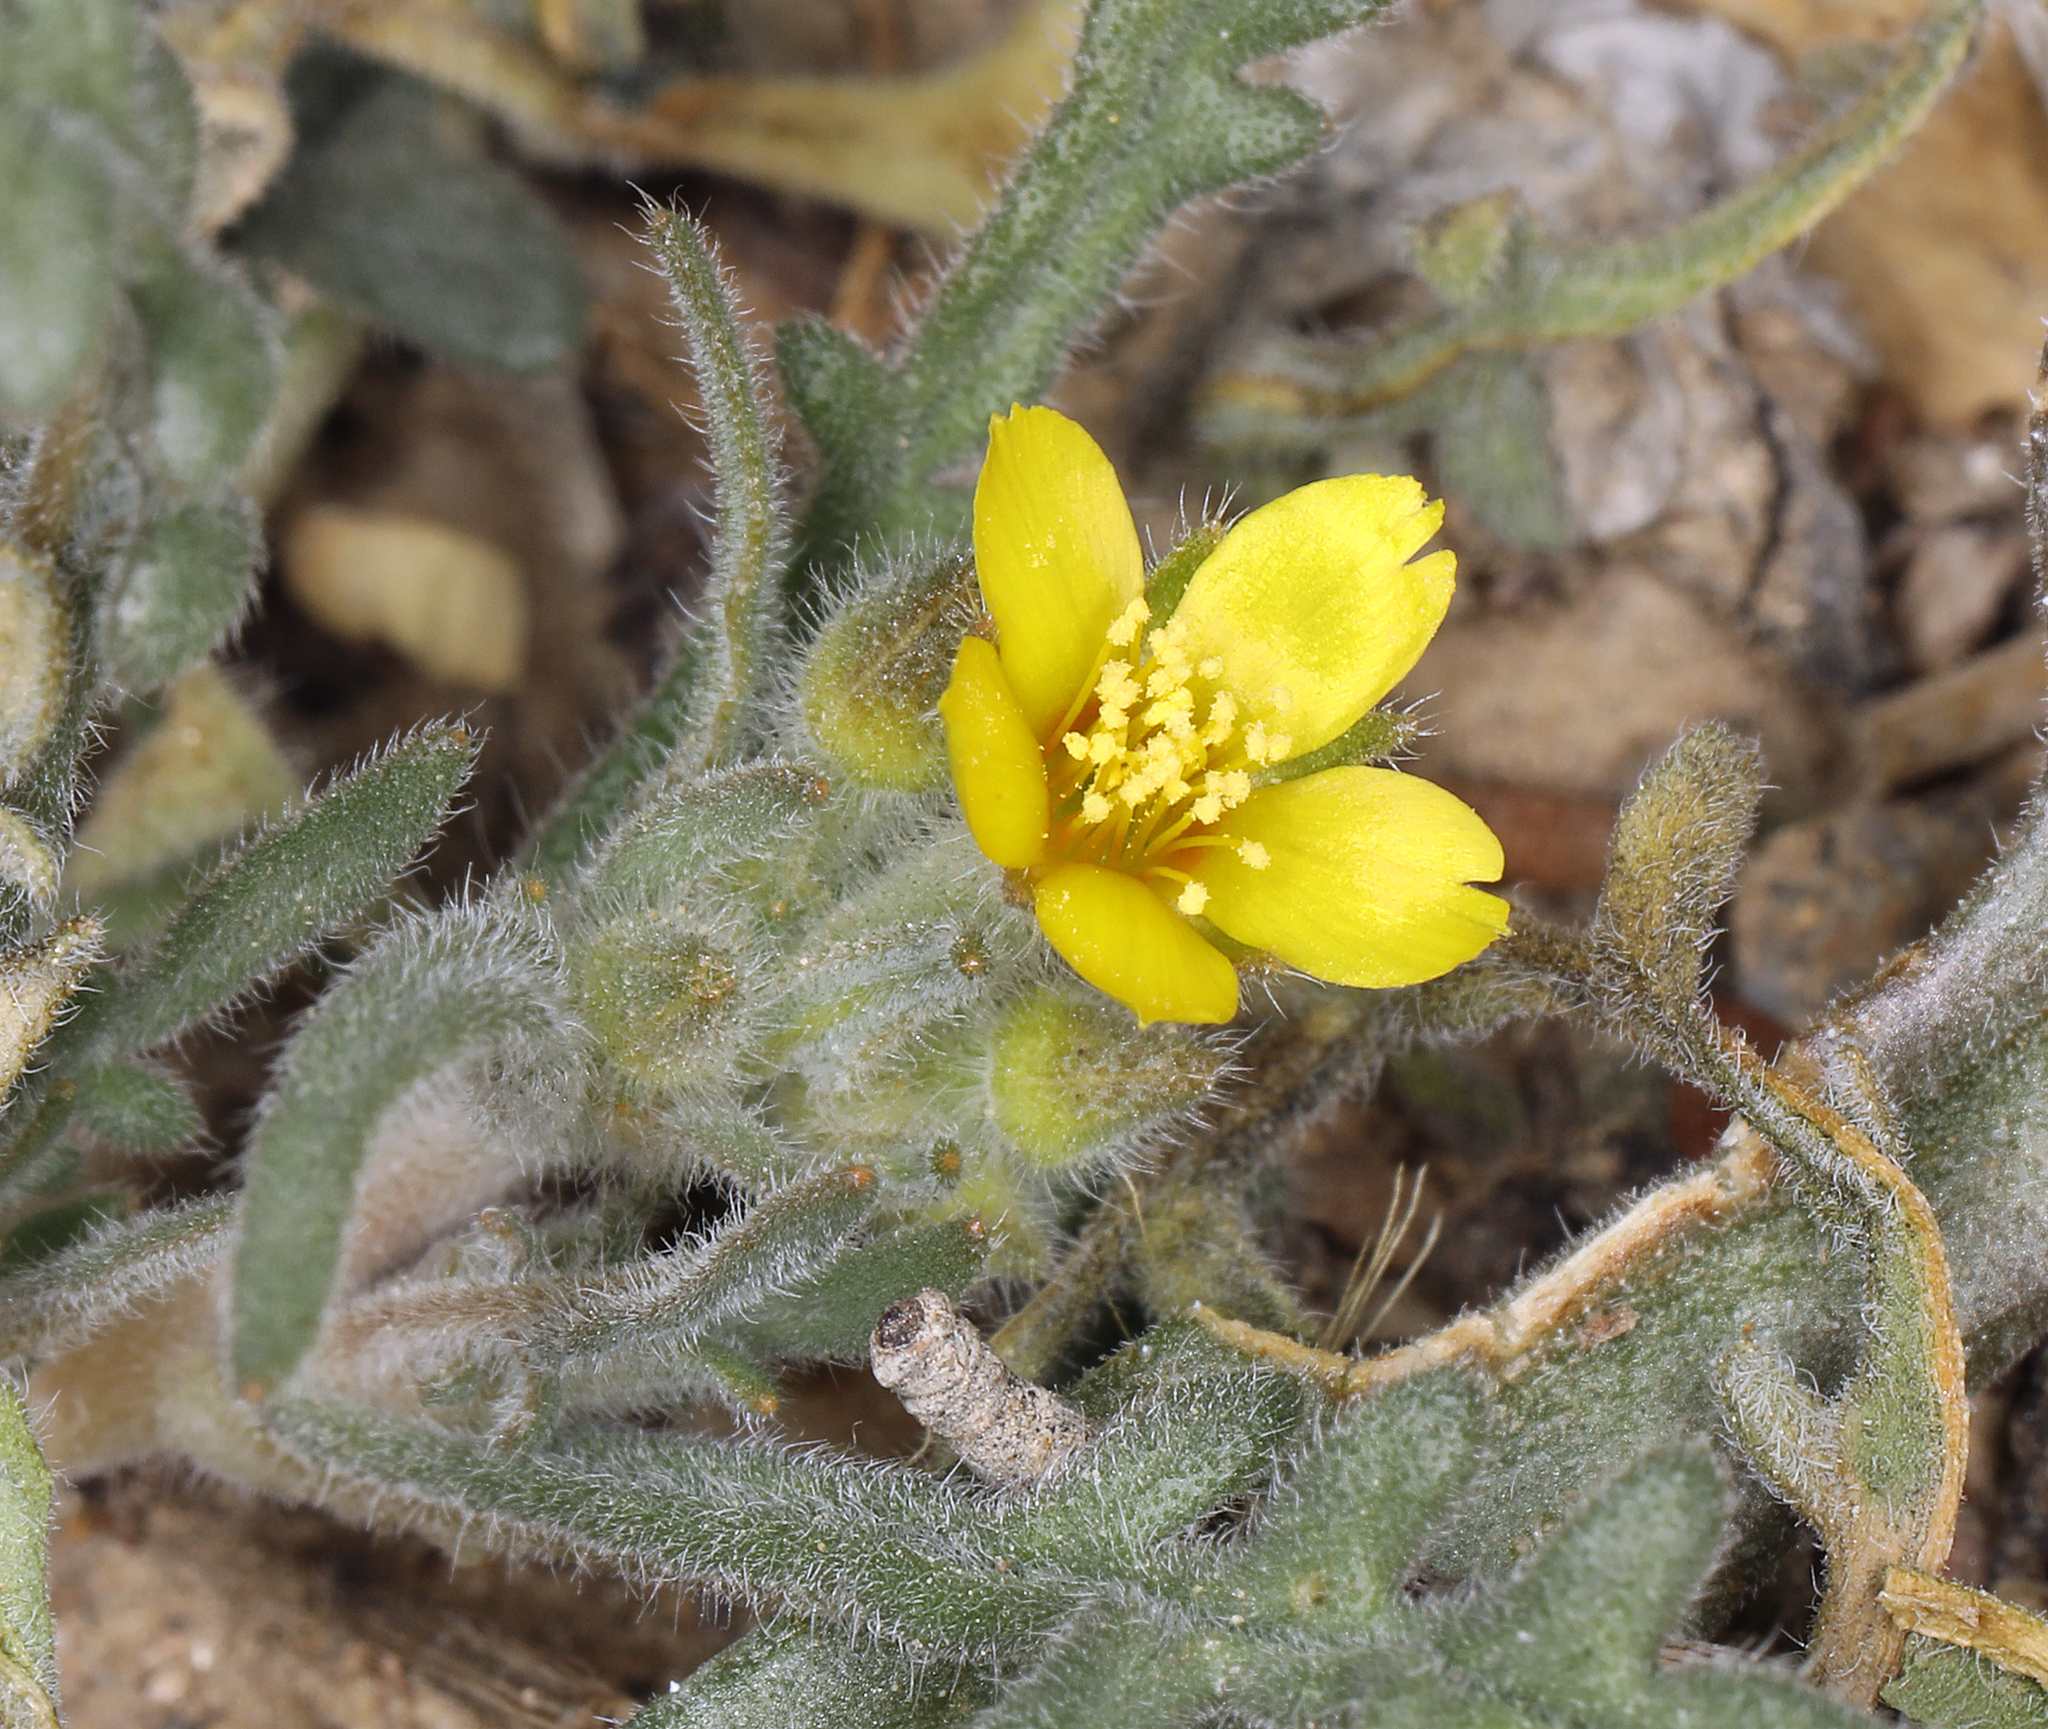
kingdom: Plantae
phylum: Tracheophyta
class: Magnoliopsida
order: Cornales
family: Loasaceae
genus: Mentzelia
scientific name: Mentzelia albicaulis
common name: White-stem blazingstar
